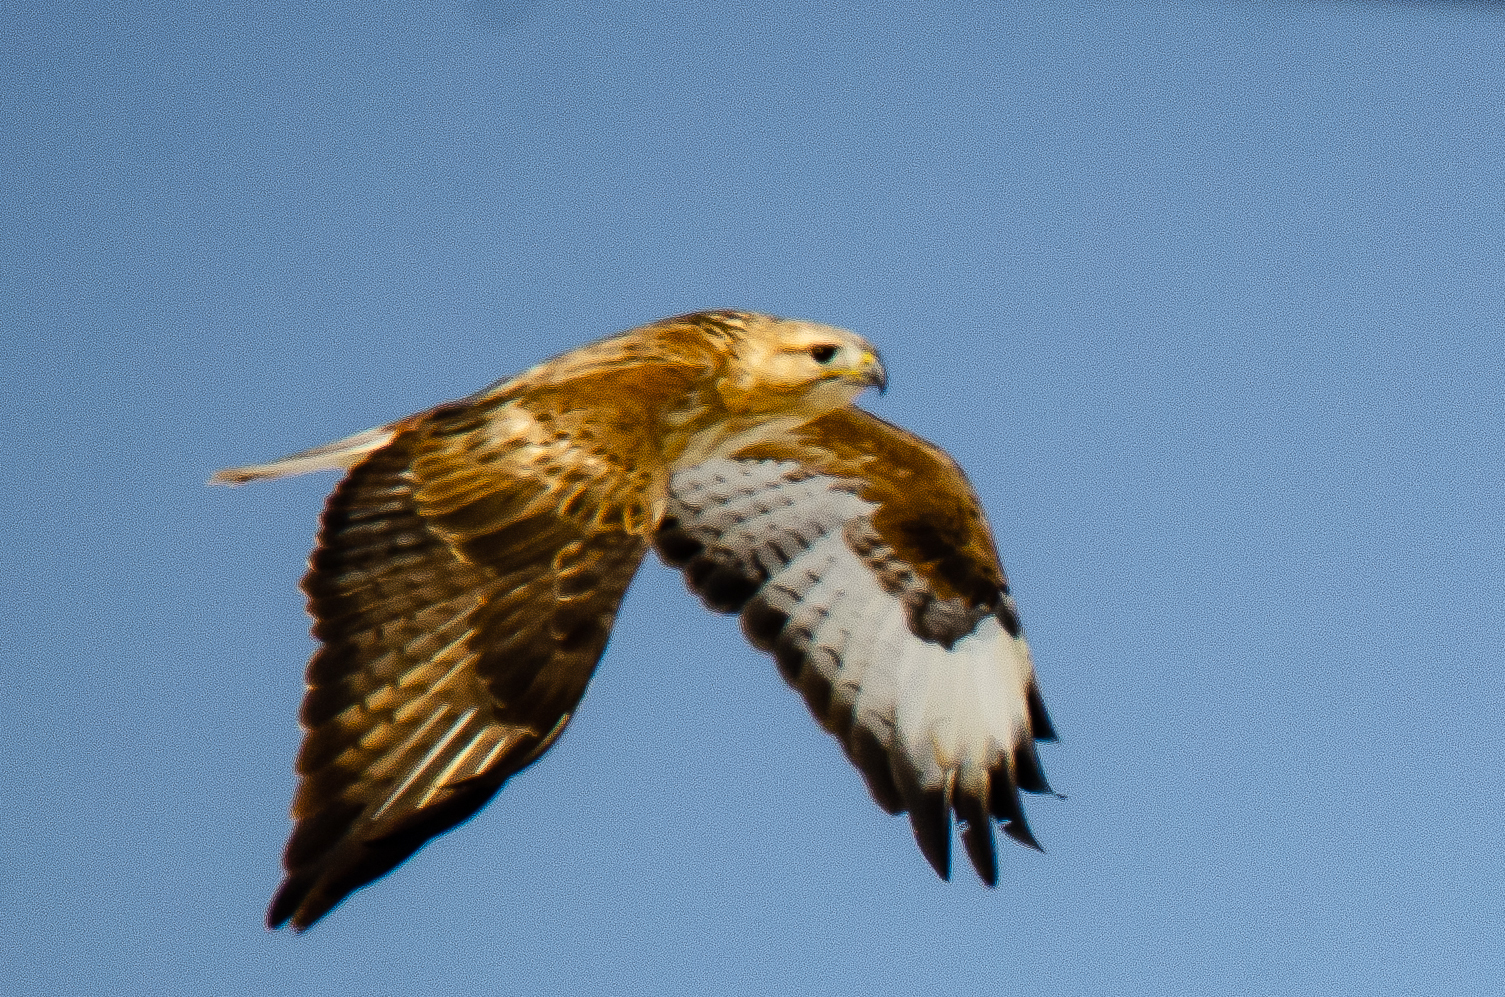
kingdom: Animalia
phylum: Chordata
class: Aves
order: Accipitriformes
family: Accipitridae
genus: Buteo
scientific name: Buteo rufinus
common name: Long-legged buzzard
